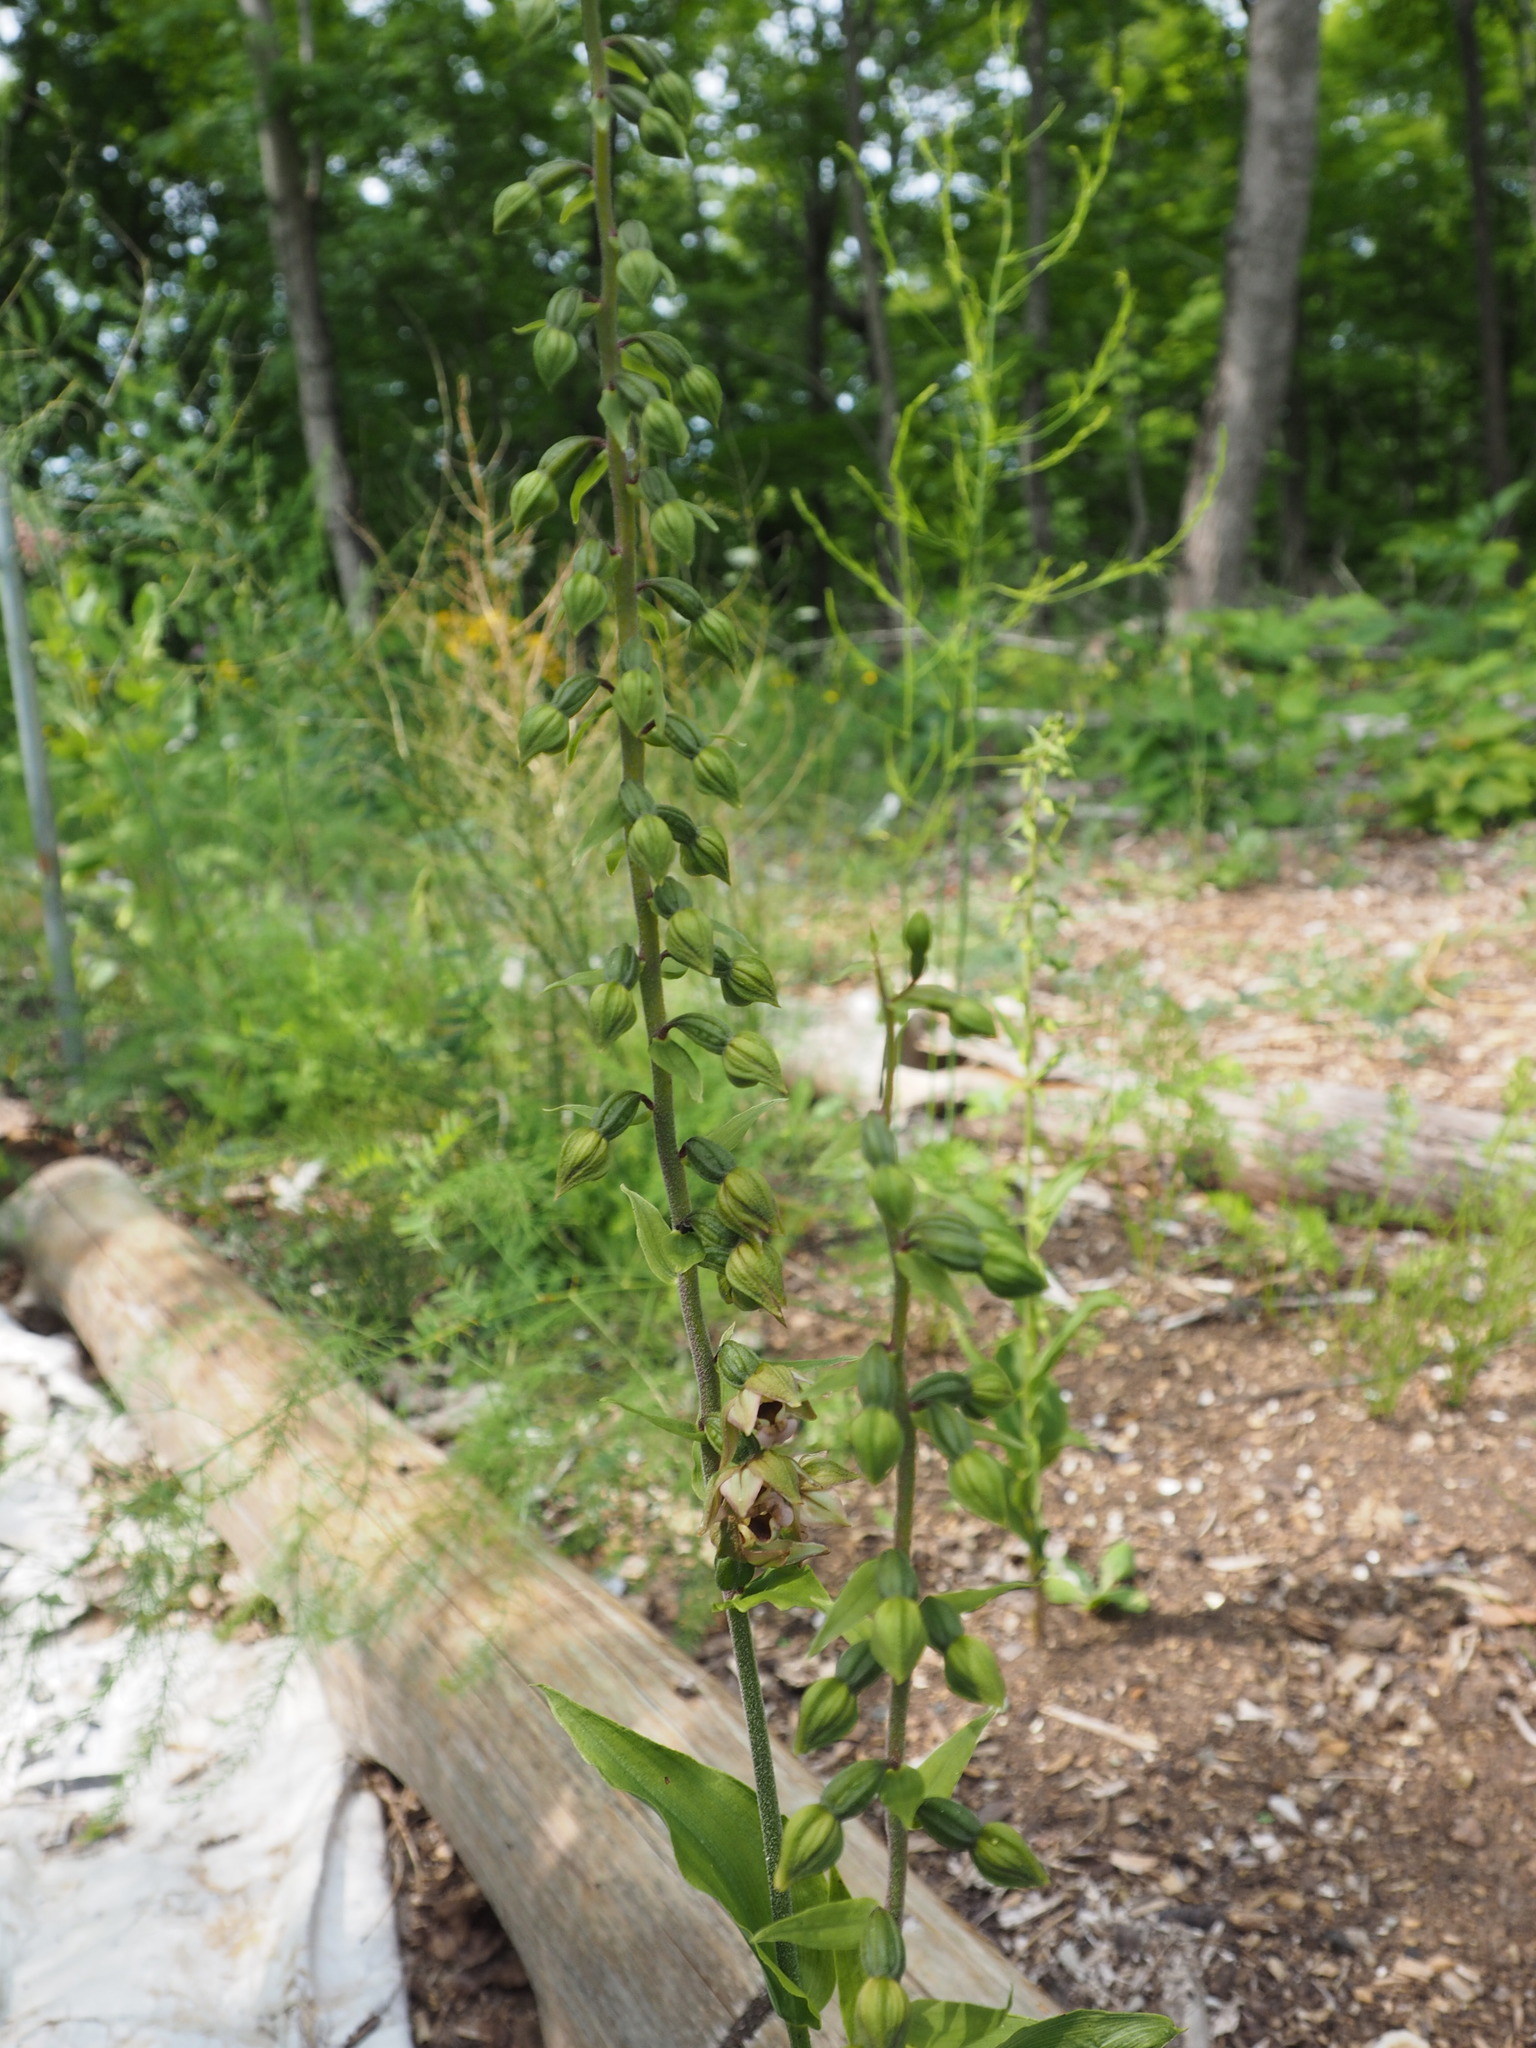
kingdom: Plantae
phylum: Tracheophyta
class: Liliopsida
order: Asparagales
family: Orchidaceae
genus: Epipactis
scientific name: Epipactis helleborine
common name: Broad-leaved helleborine
